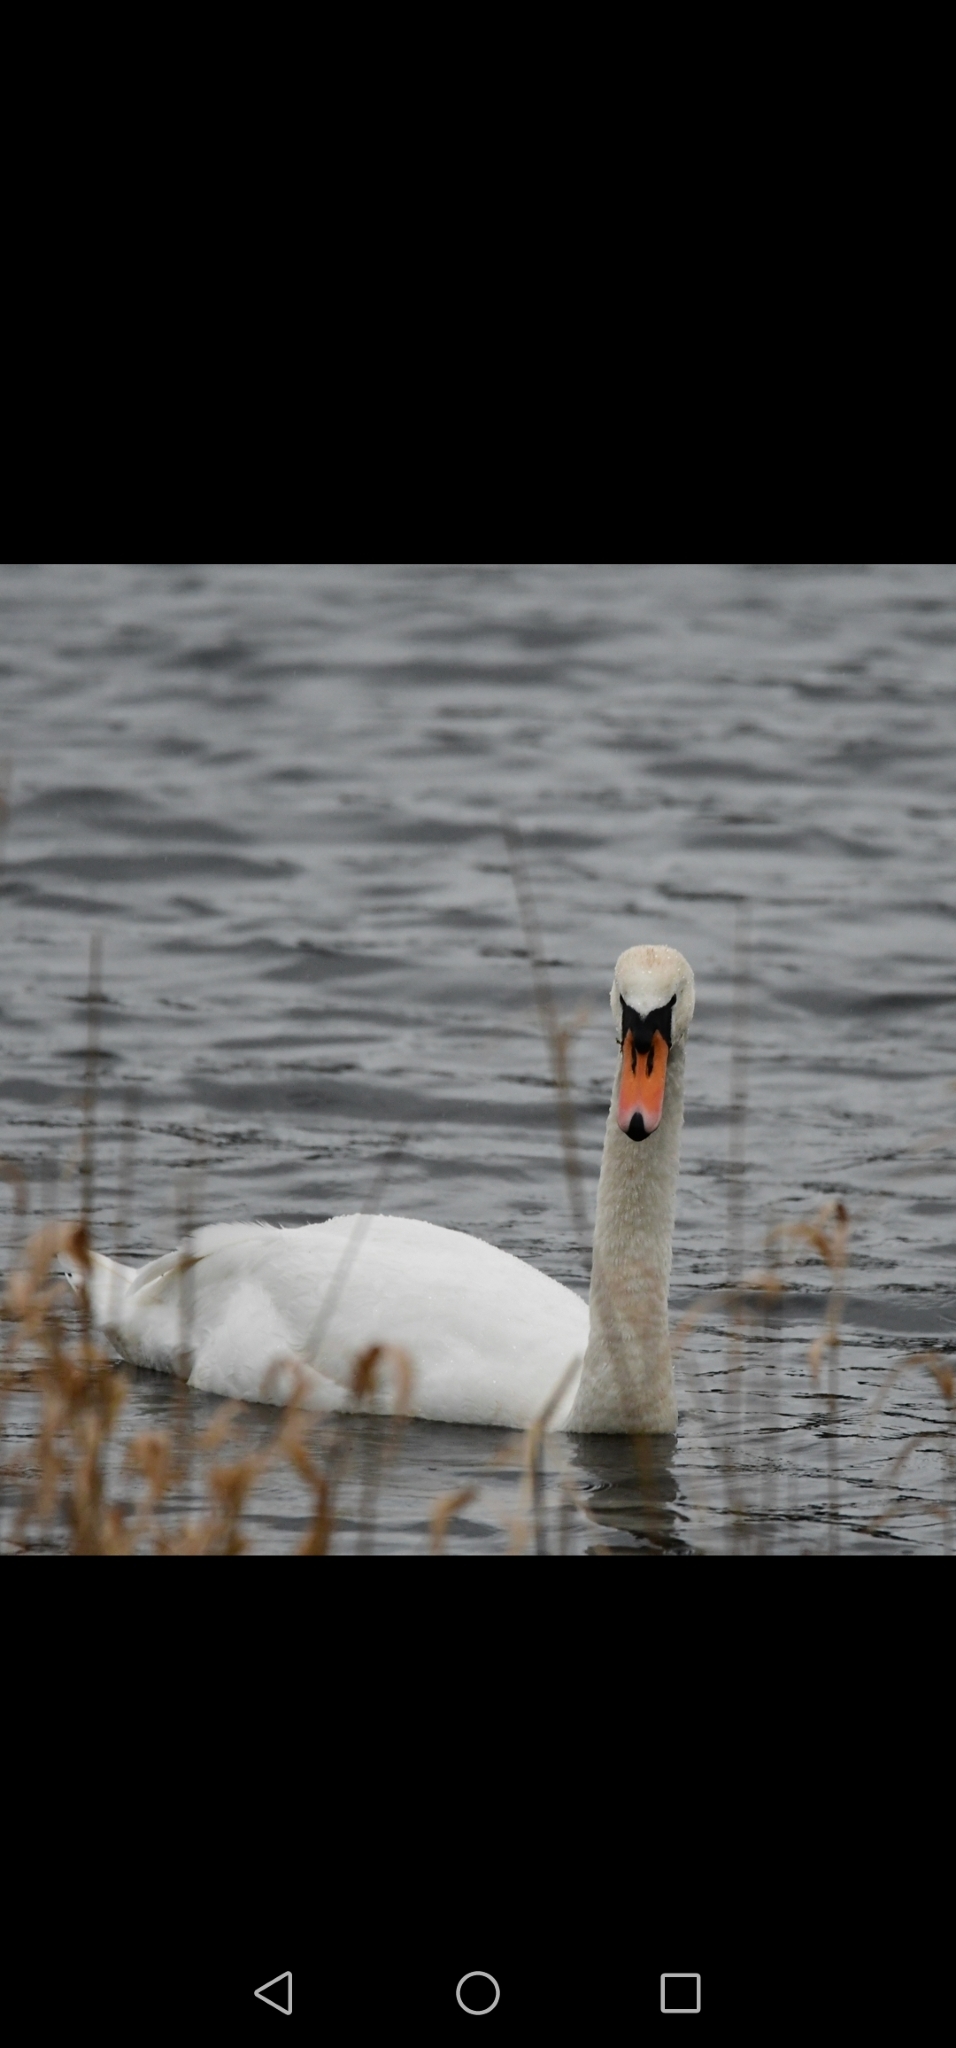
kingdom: Animalia
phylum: Chordata
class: Aves
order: Anseriformes
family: Anatidae
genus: Cygnus
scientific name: Cygnus olor
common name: Mute swan
